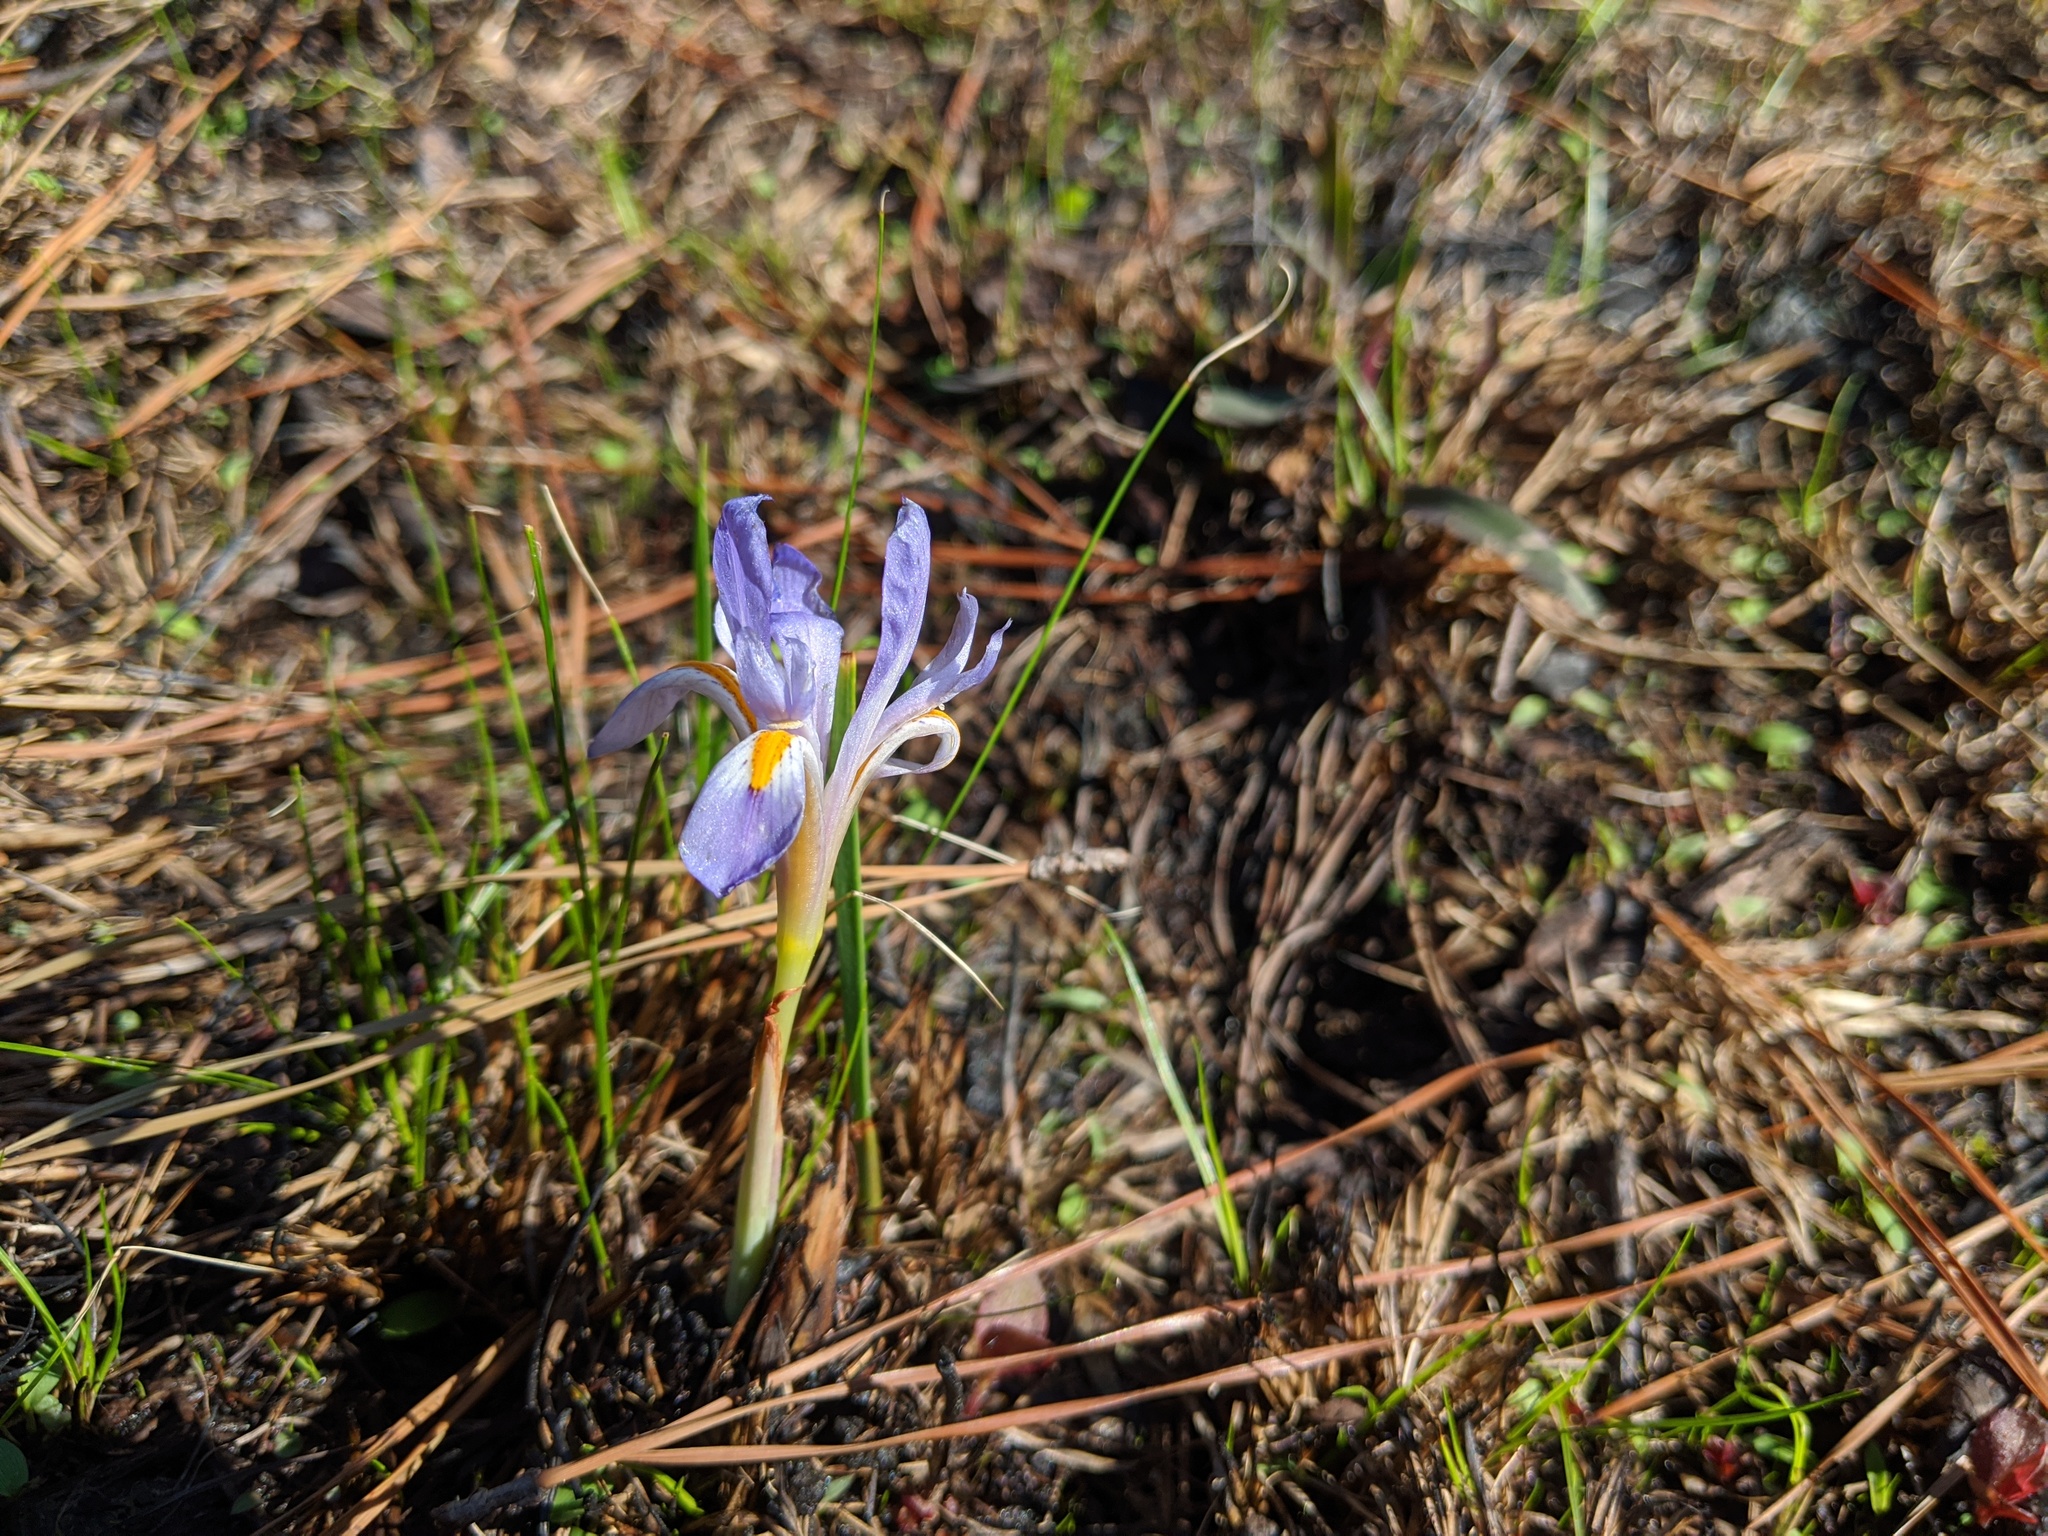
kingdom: Plantae
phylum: Tracheophyta
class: Liliopsida
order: Asparagales
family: Iridaceae
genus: Iris
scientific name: Iris verna
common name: Dwarf iris
